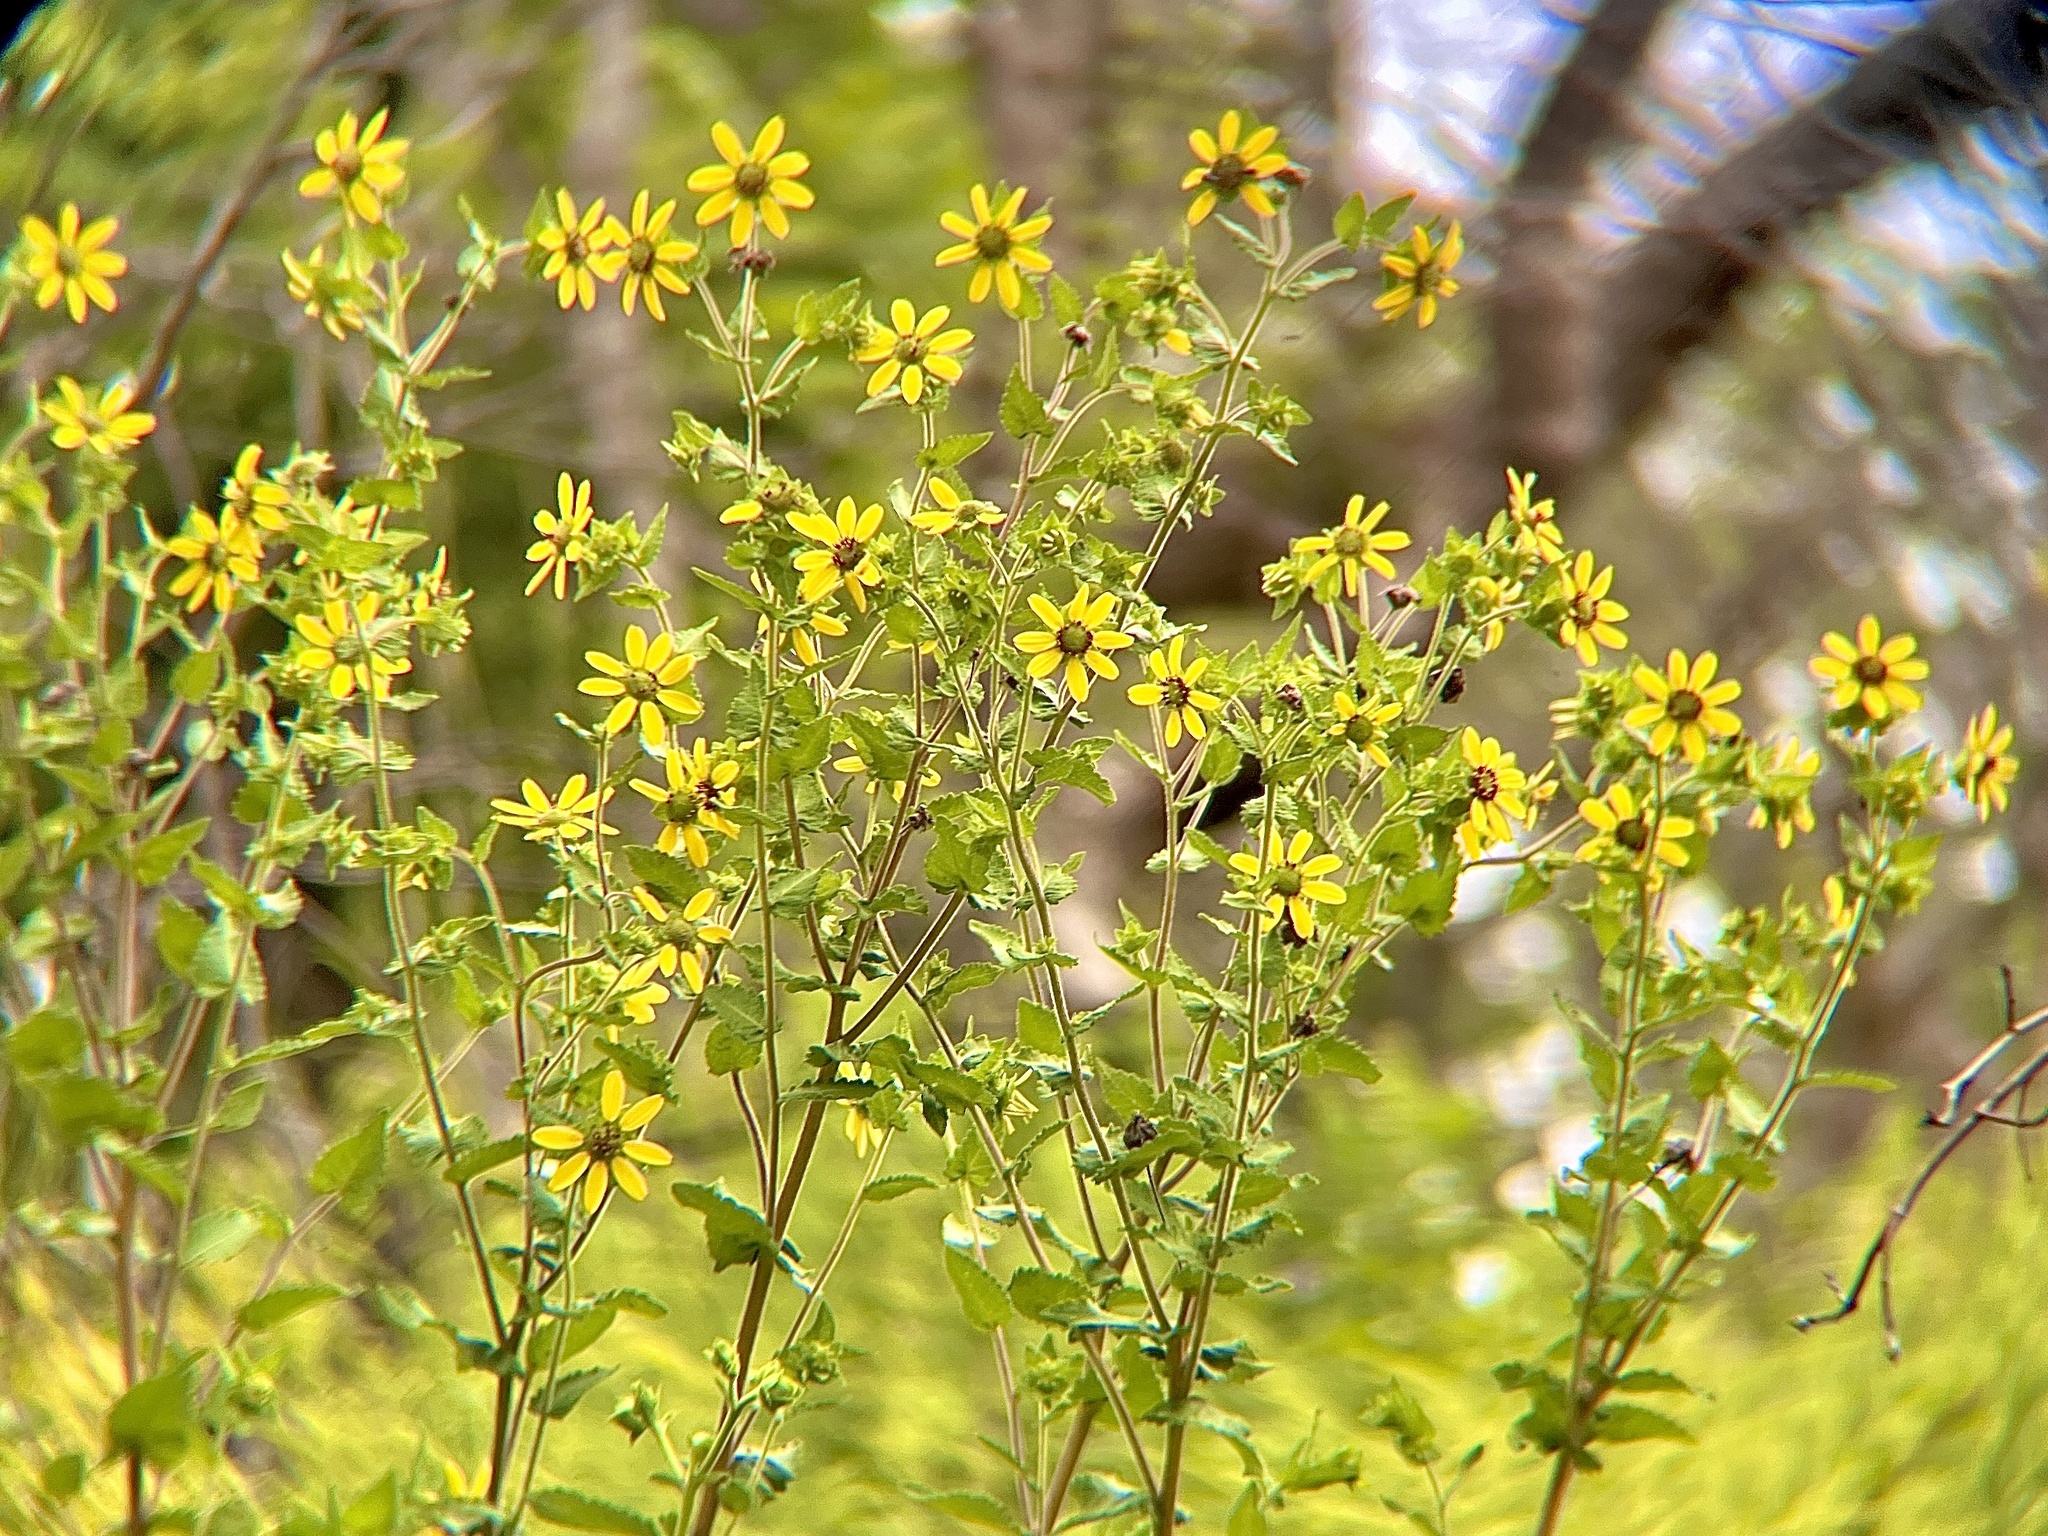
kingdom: Plantae
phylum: Tracheophyta
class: Magnoliopsida
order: Asterales
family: Asteraceae
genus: Berlandiera
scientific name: Berlandiera texana
